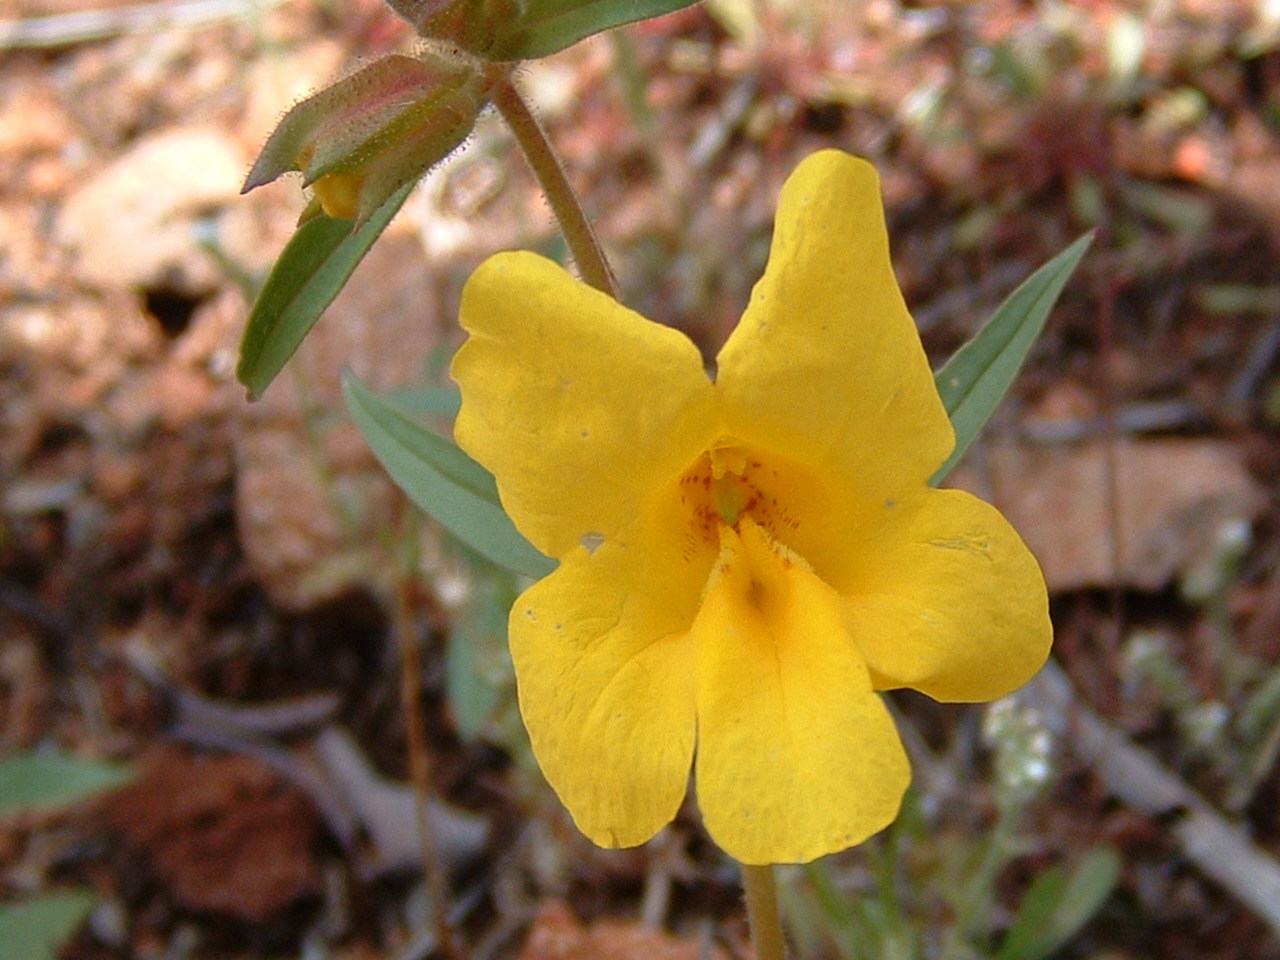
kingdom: Plantae
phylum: Tracheophyta
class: Magnoliopsida
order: Lamiales
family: Phrymaceae
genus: Diplacus
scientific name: Diplacus brevipes
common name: Wide-throat yellow monkey-flower
